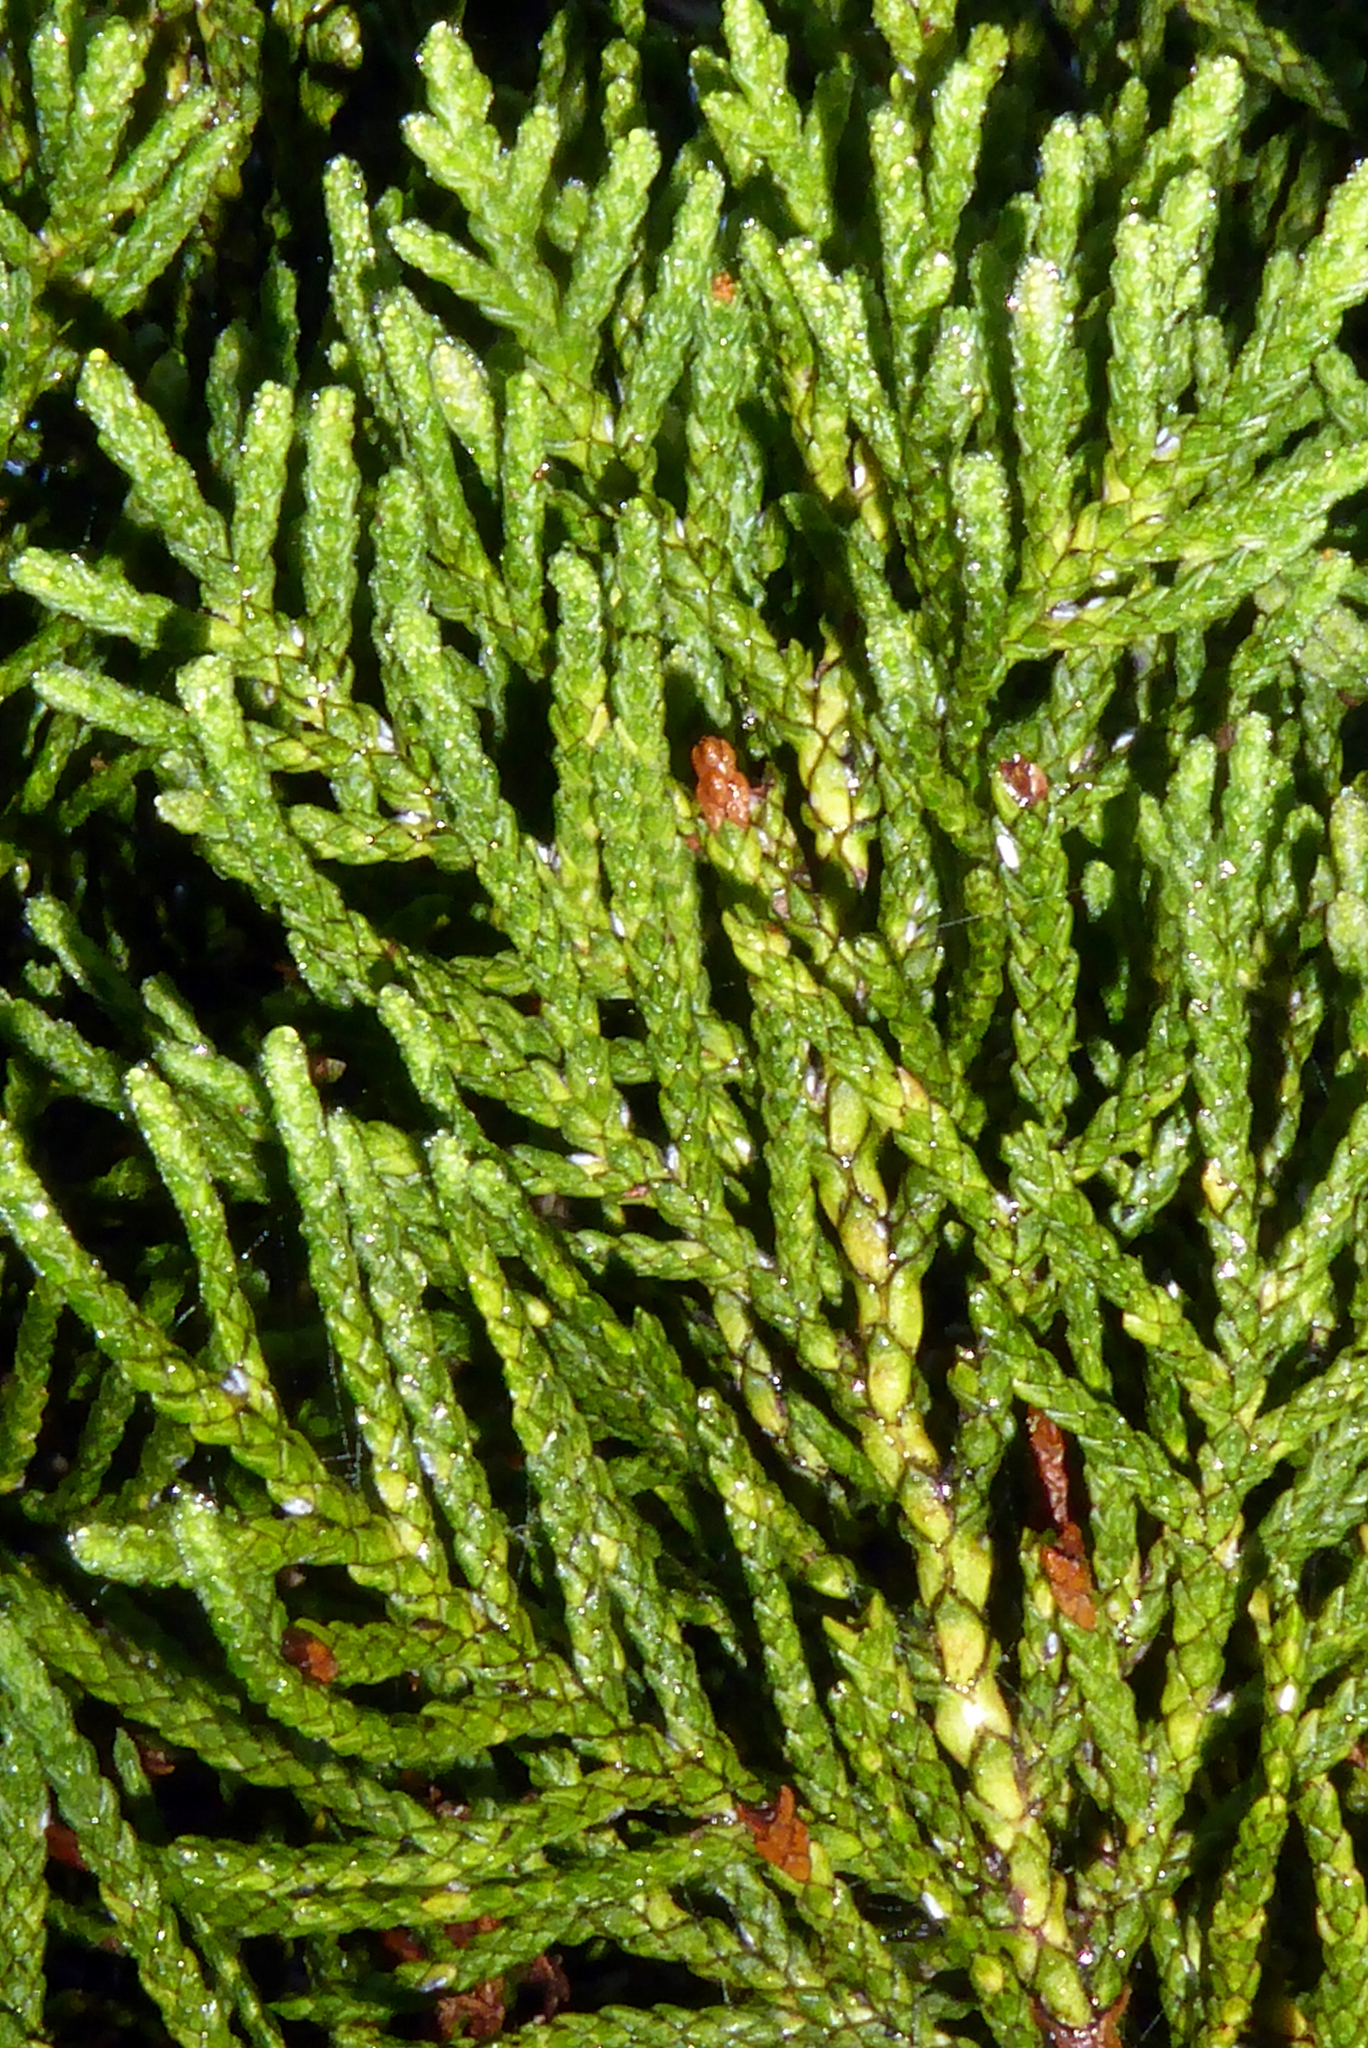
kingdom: Plantae
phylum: Tracheophyta
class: Pinopsida
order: Pinales
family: Cupressaceae
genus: Libocedrus
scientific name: Libocedrus bidwillii
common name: Cedar
